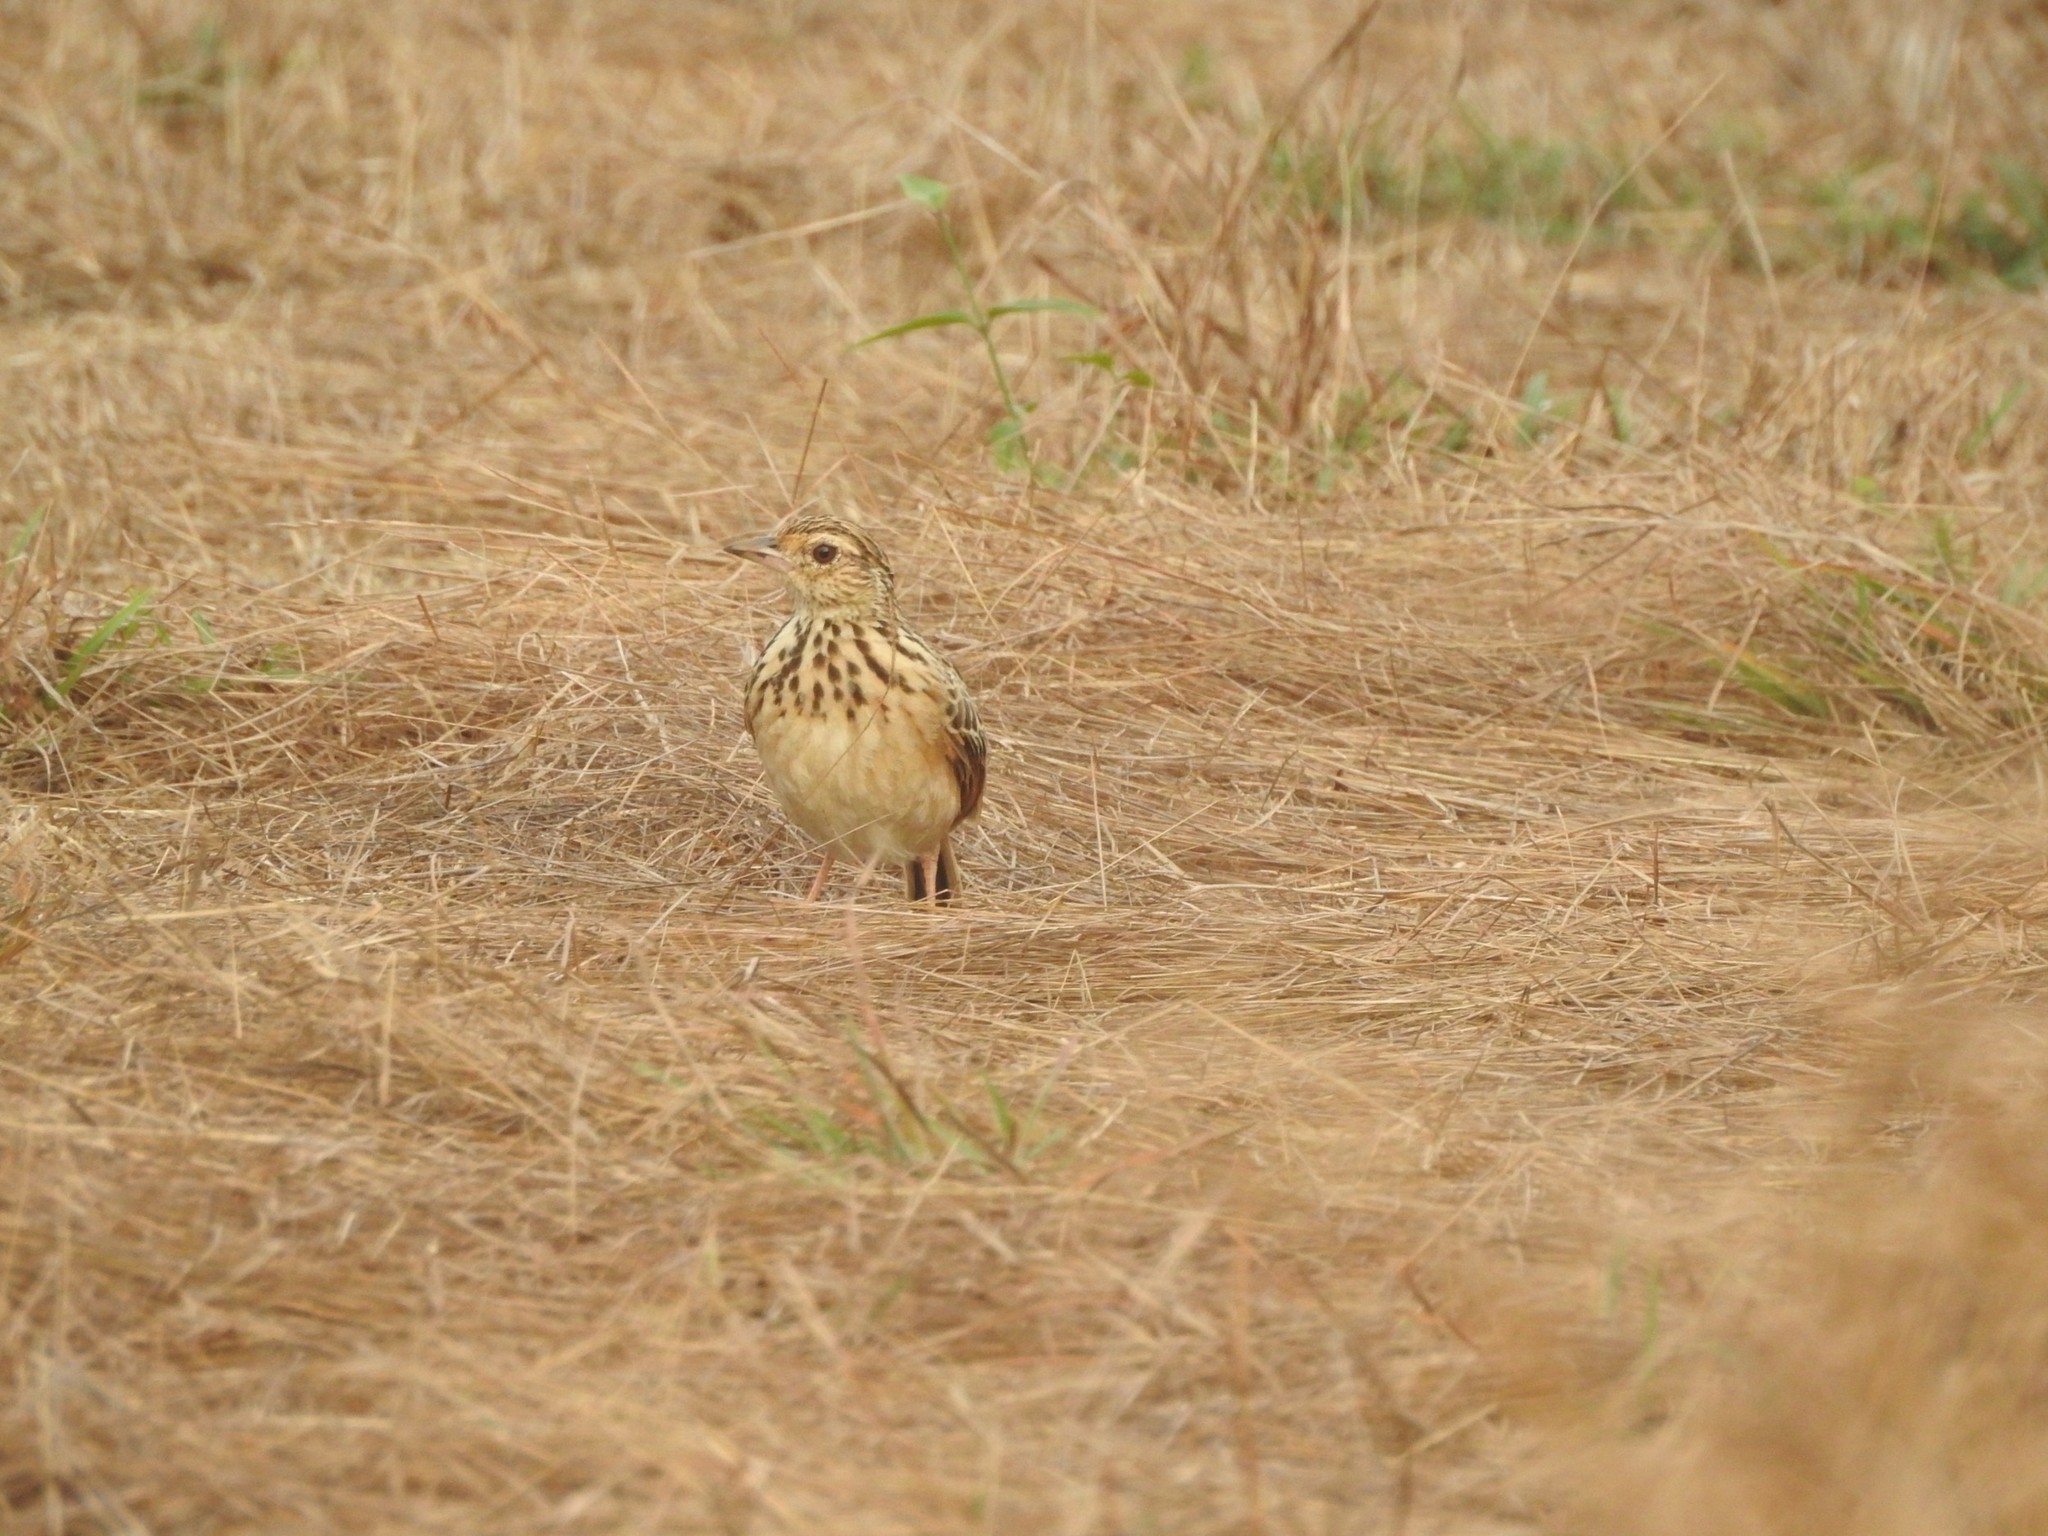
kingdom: Animalia
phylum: Chordata
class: Aves
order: Passeriformes
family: Alaudidae
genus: Mirafra
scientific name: Mirafra affinis
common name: Jerdon's bushlark
